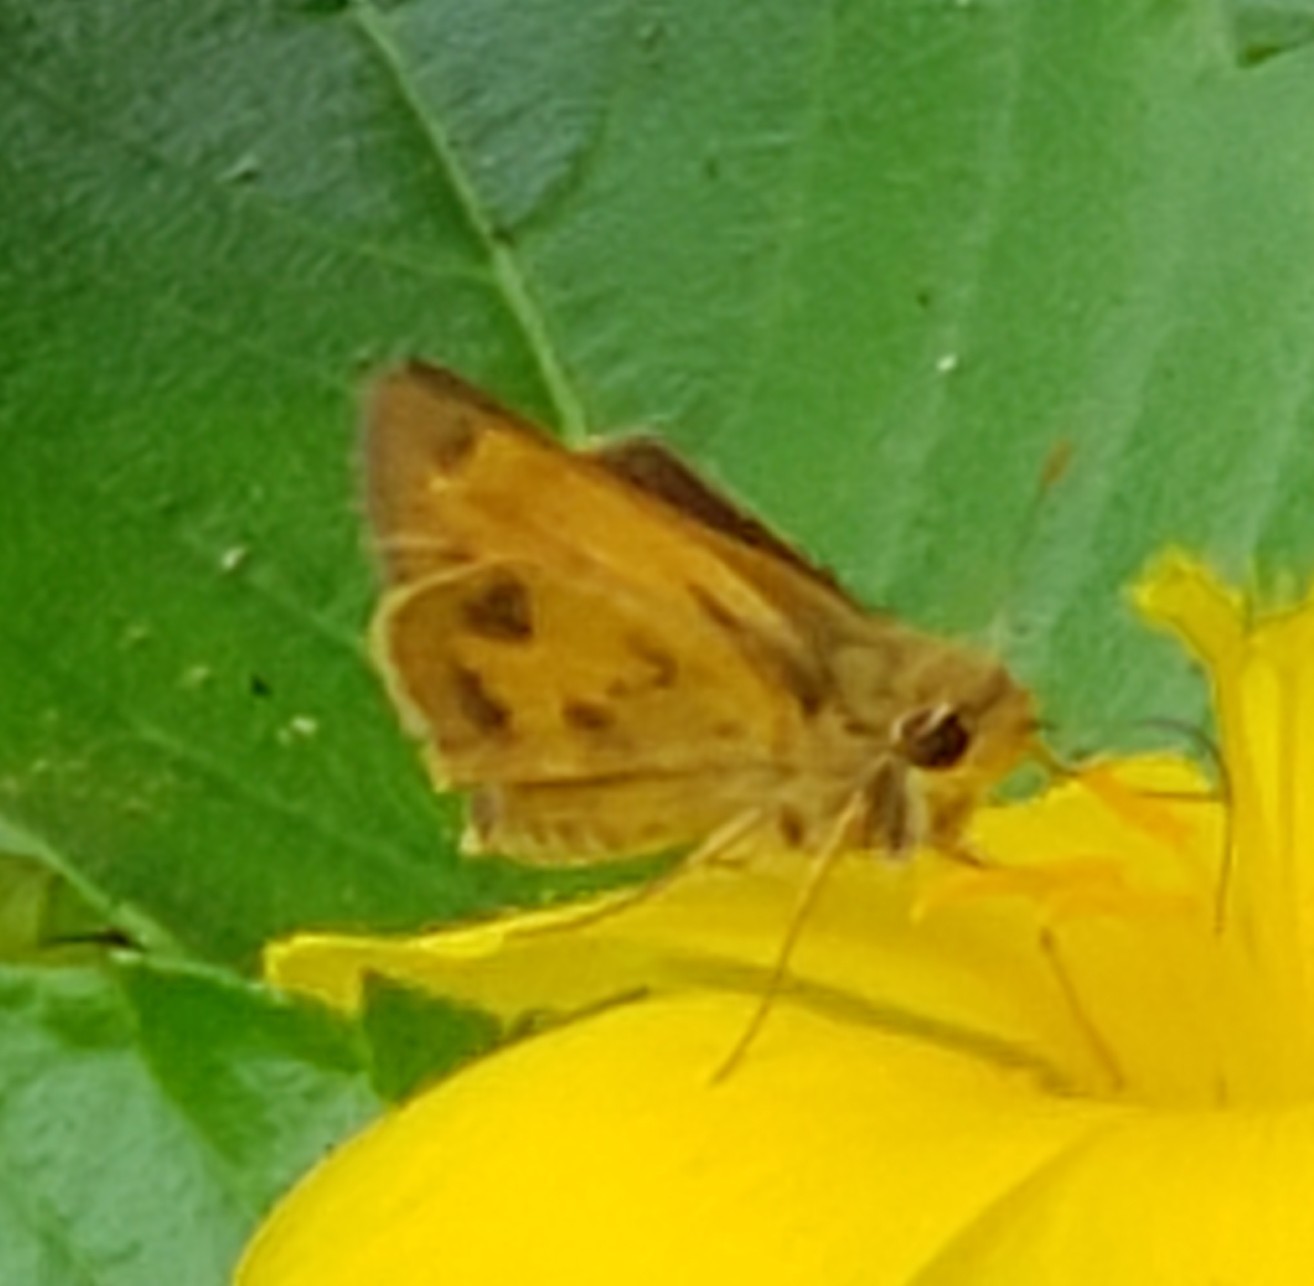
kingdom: Animalia
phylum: Arthropoda
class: Insecta
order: Lepidoptera
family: Hesperiidae
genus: Polites
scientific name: Polites vibex
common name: Whirlabout
